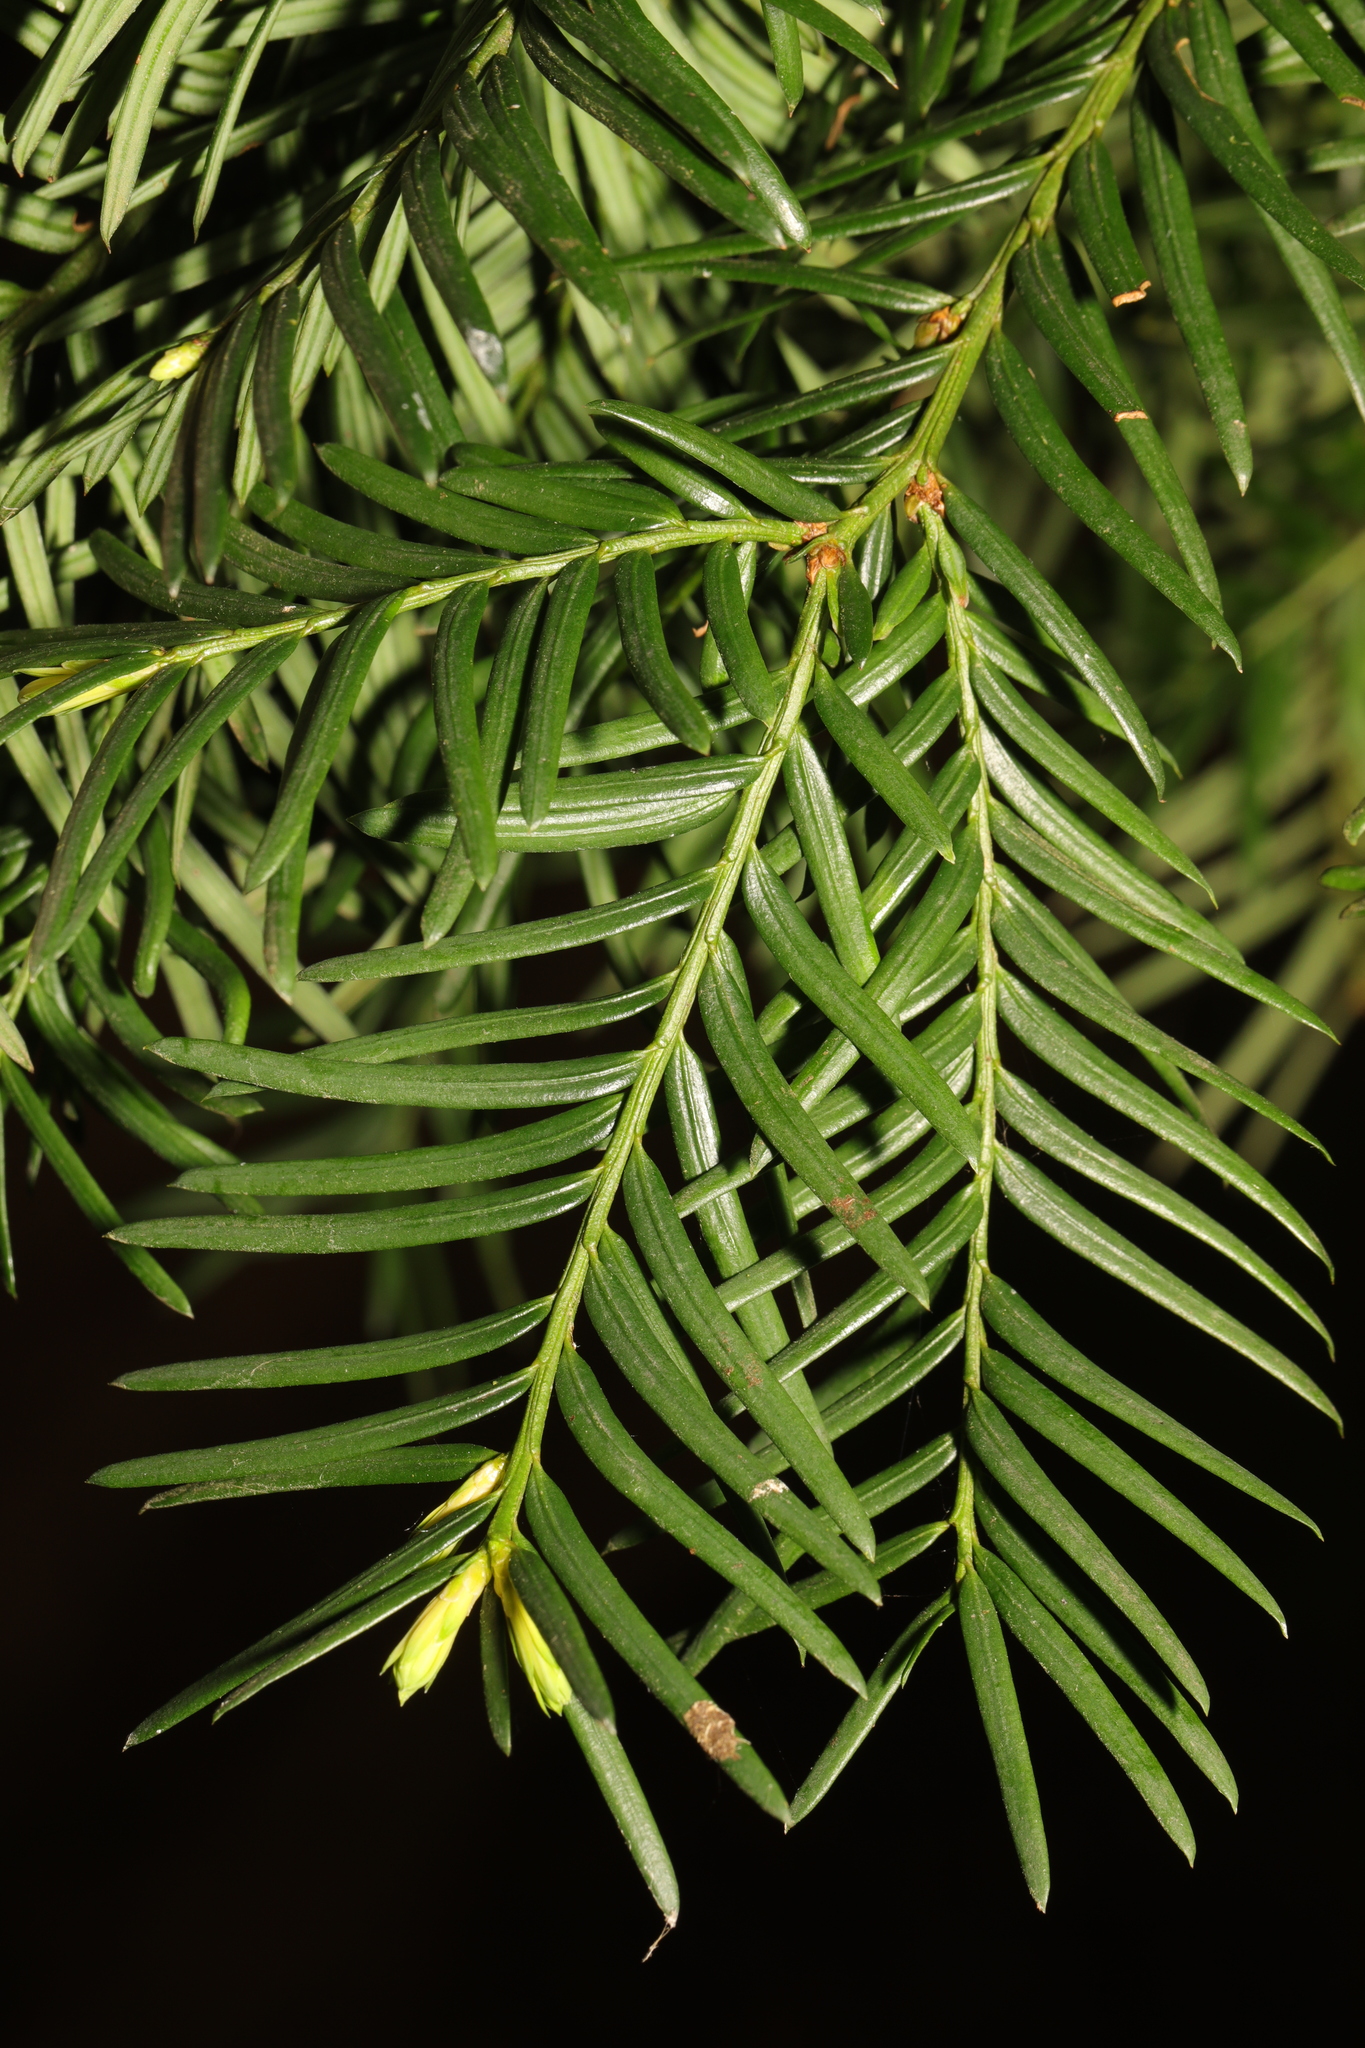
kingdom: Plantae
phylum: Tracheophyta
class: Pinopsida
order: Pinales
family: Taxaceae
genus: Taxus
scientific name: Taxus baccata
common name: Yew
